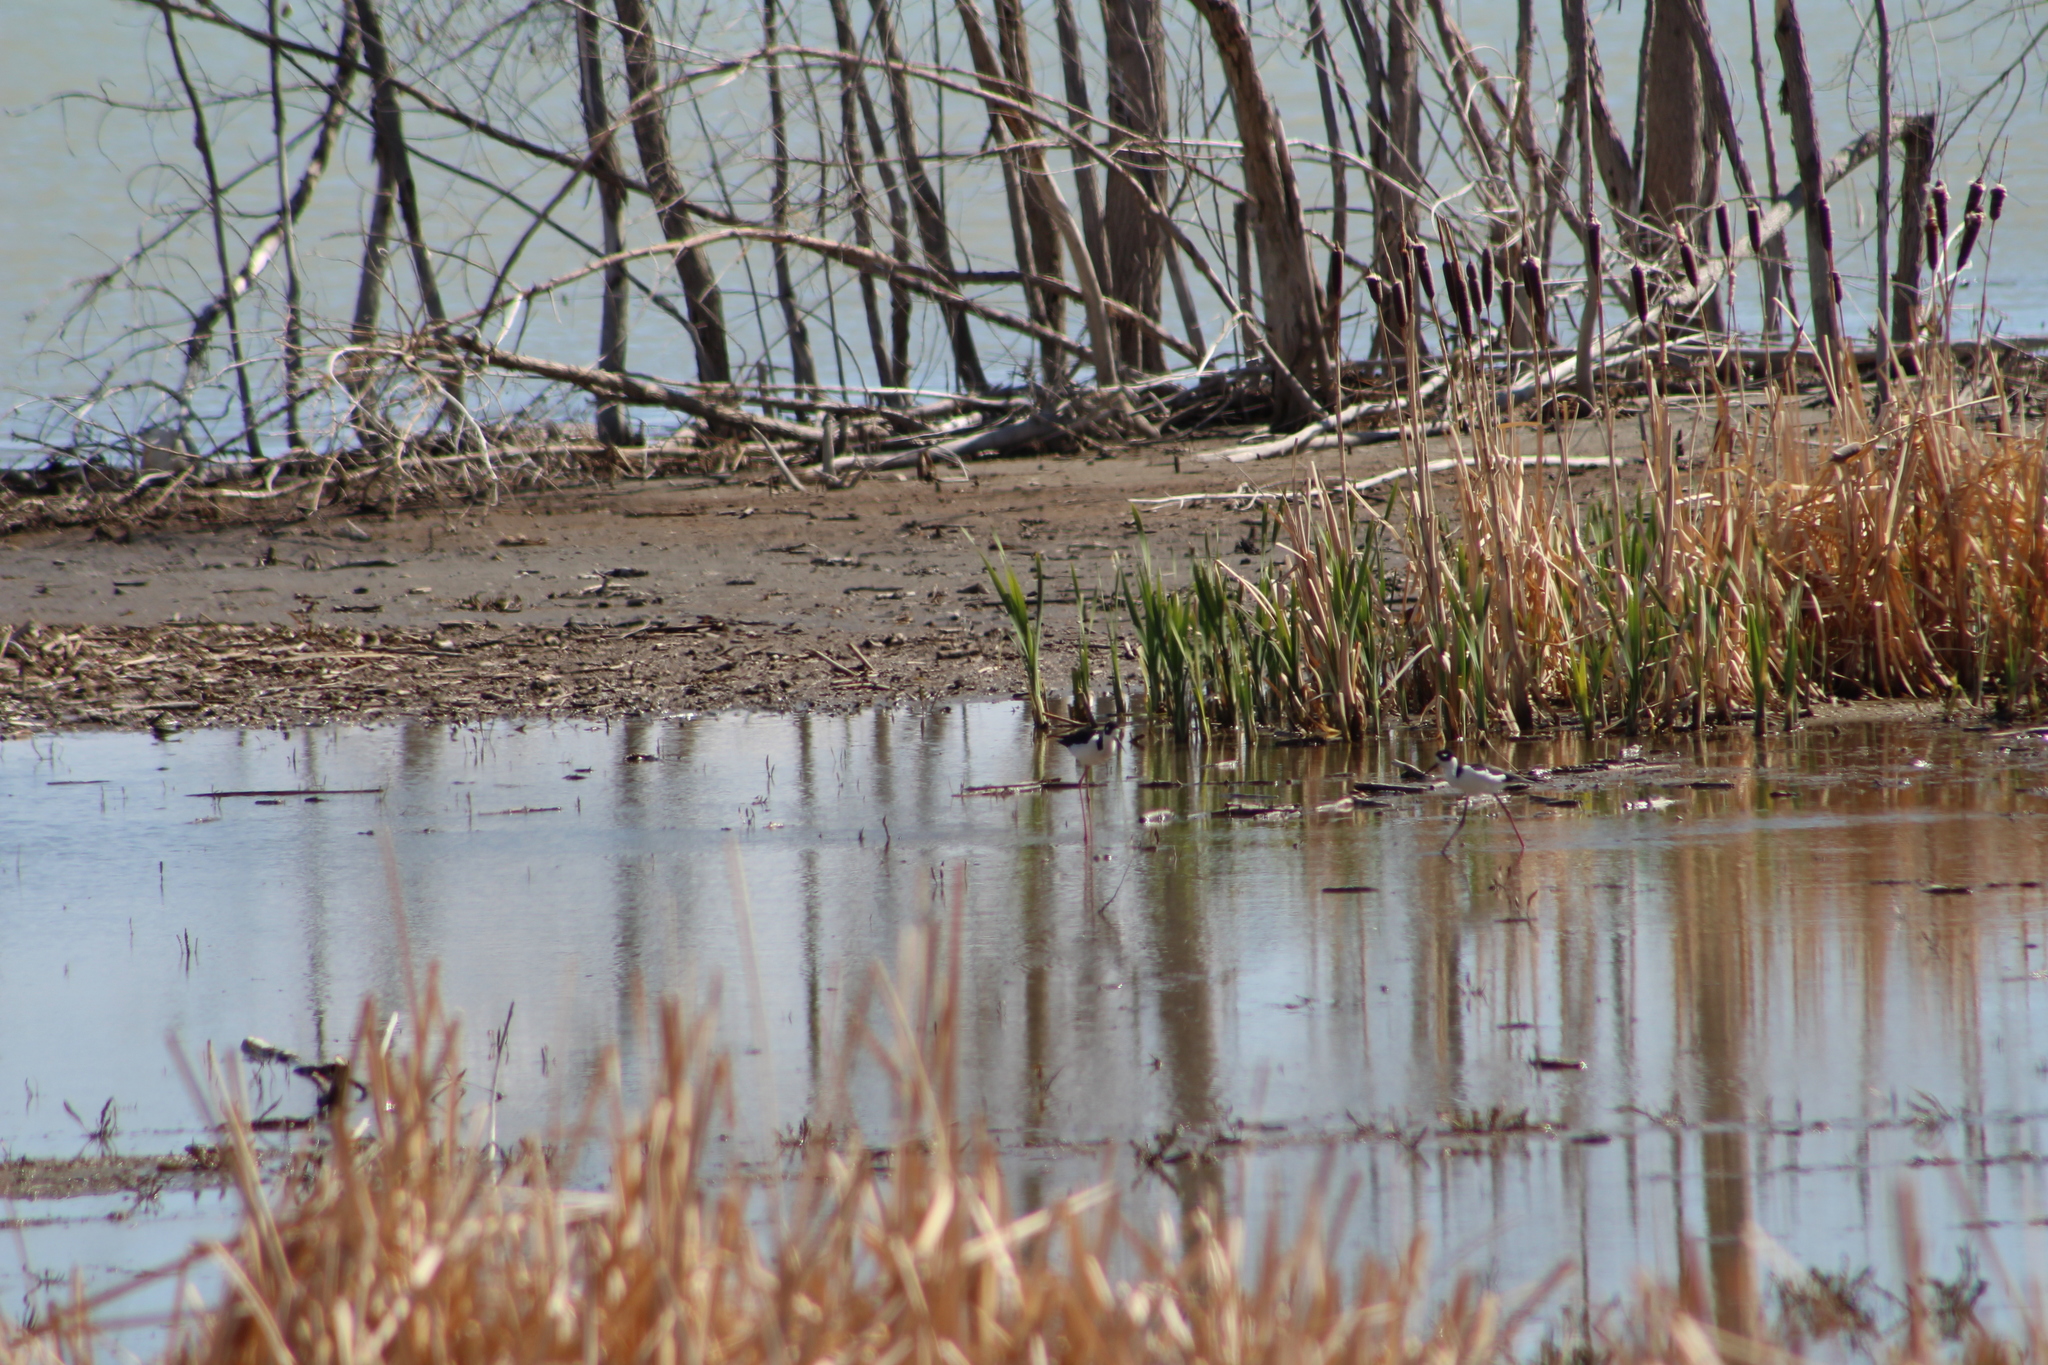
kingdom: Animalia
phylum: Chordata
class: Aves
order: Charadriiformes
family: Recurvirostridae
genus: Himantopus
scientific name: Himantopus mexicanus
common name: Black-necked stilt
